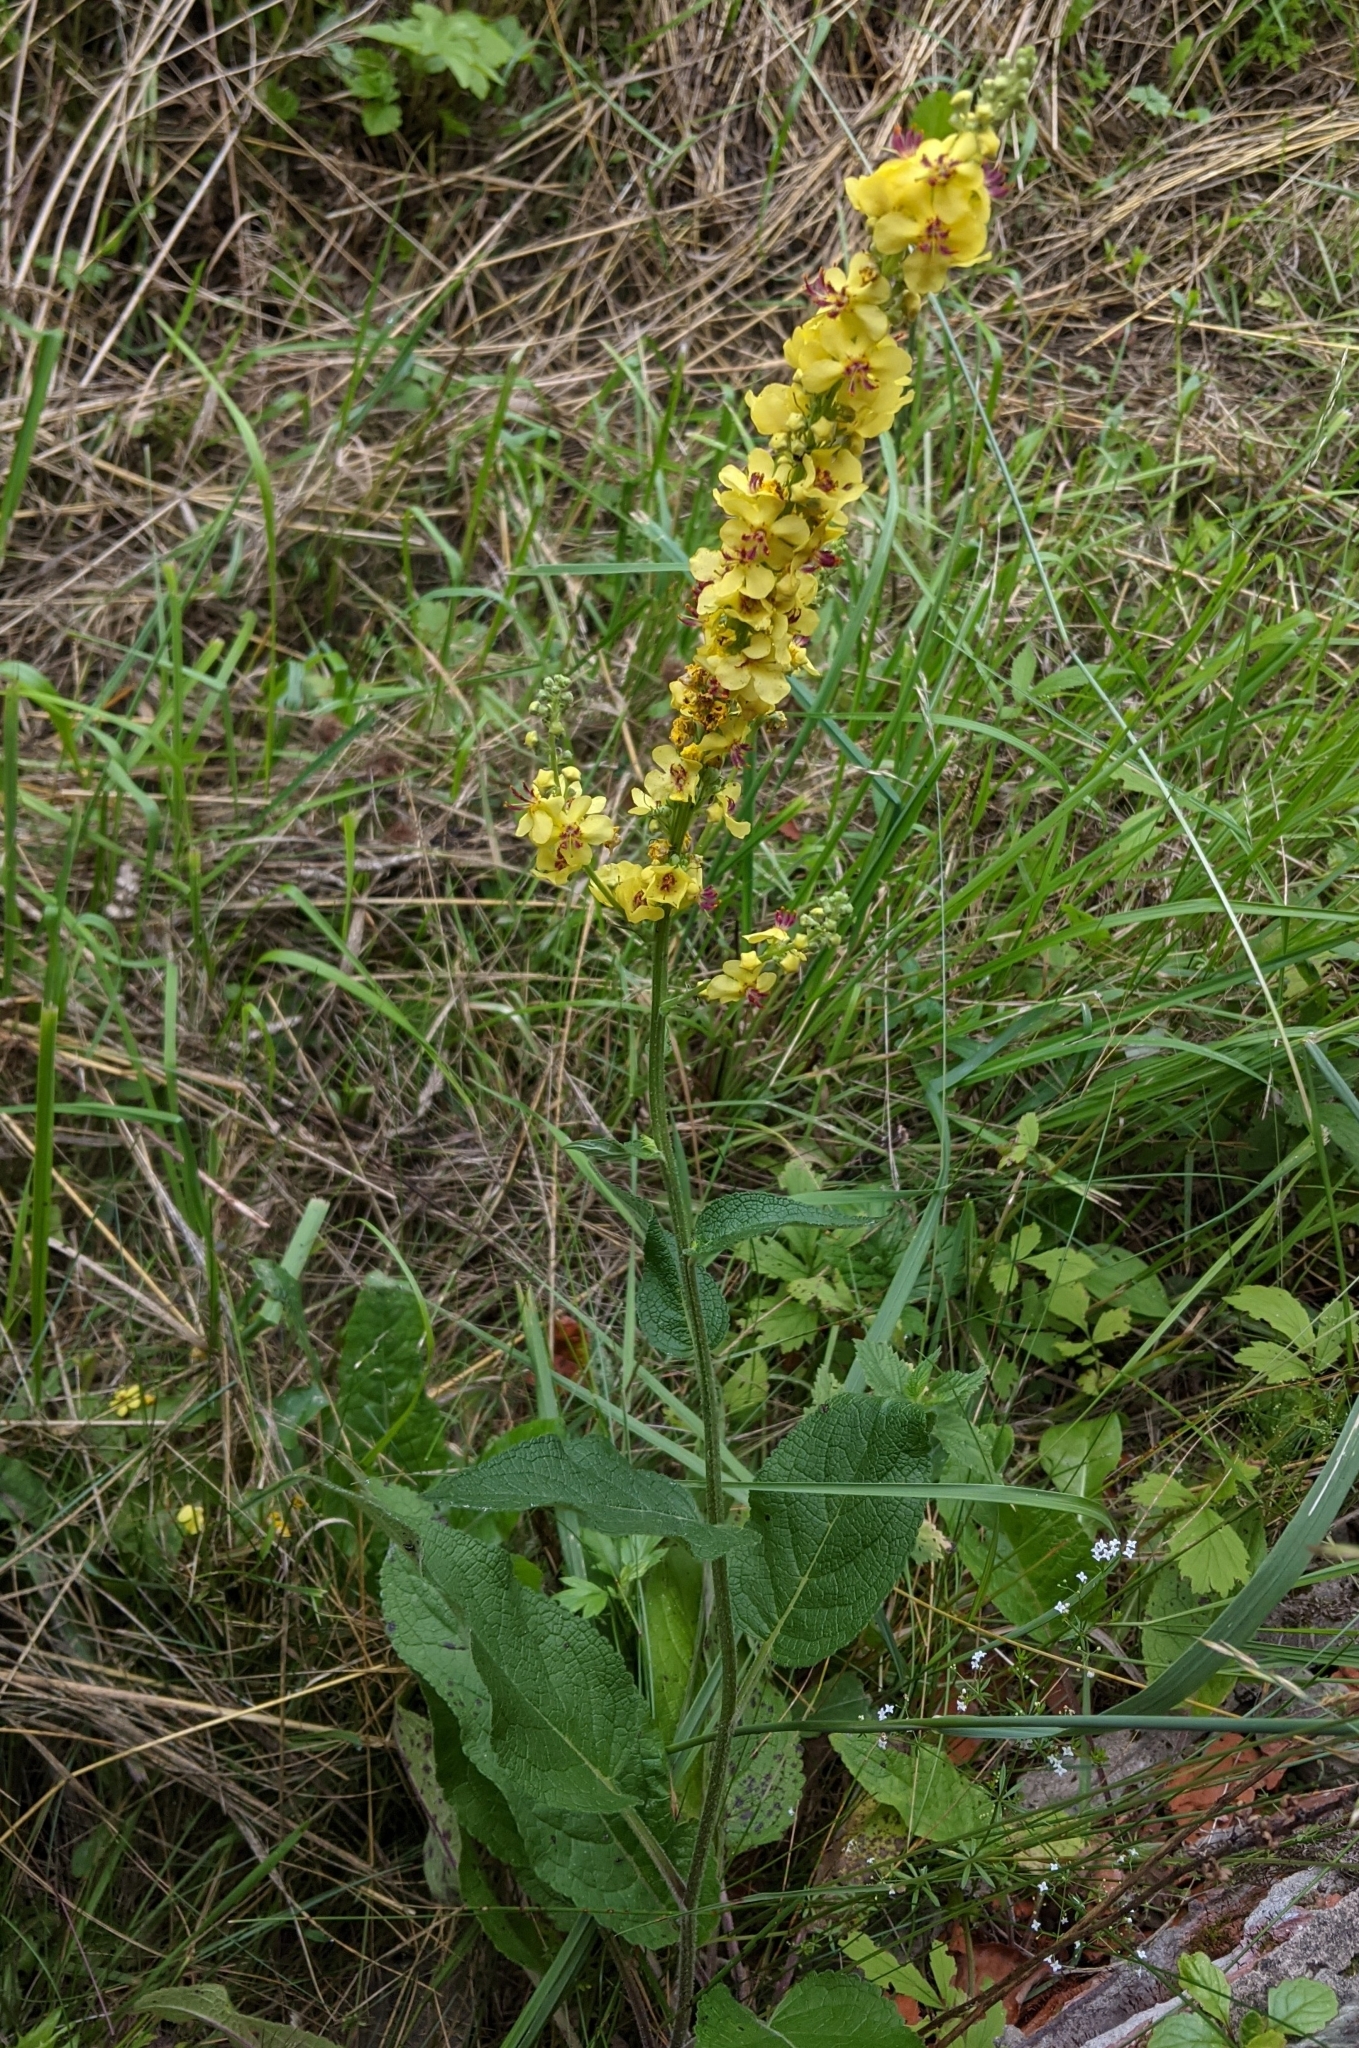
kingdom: Plantae
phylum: Tracheophyta
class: Magnoliopsida
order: Lamiales
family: Scrophulariaceae
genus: Verbascum
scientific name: Verbascum nigrum
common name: Dark mullein
